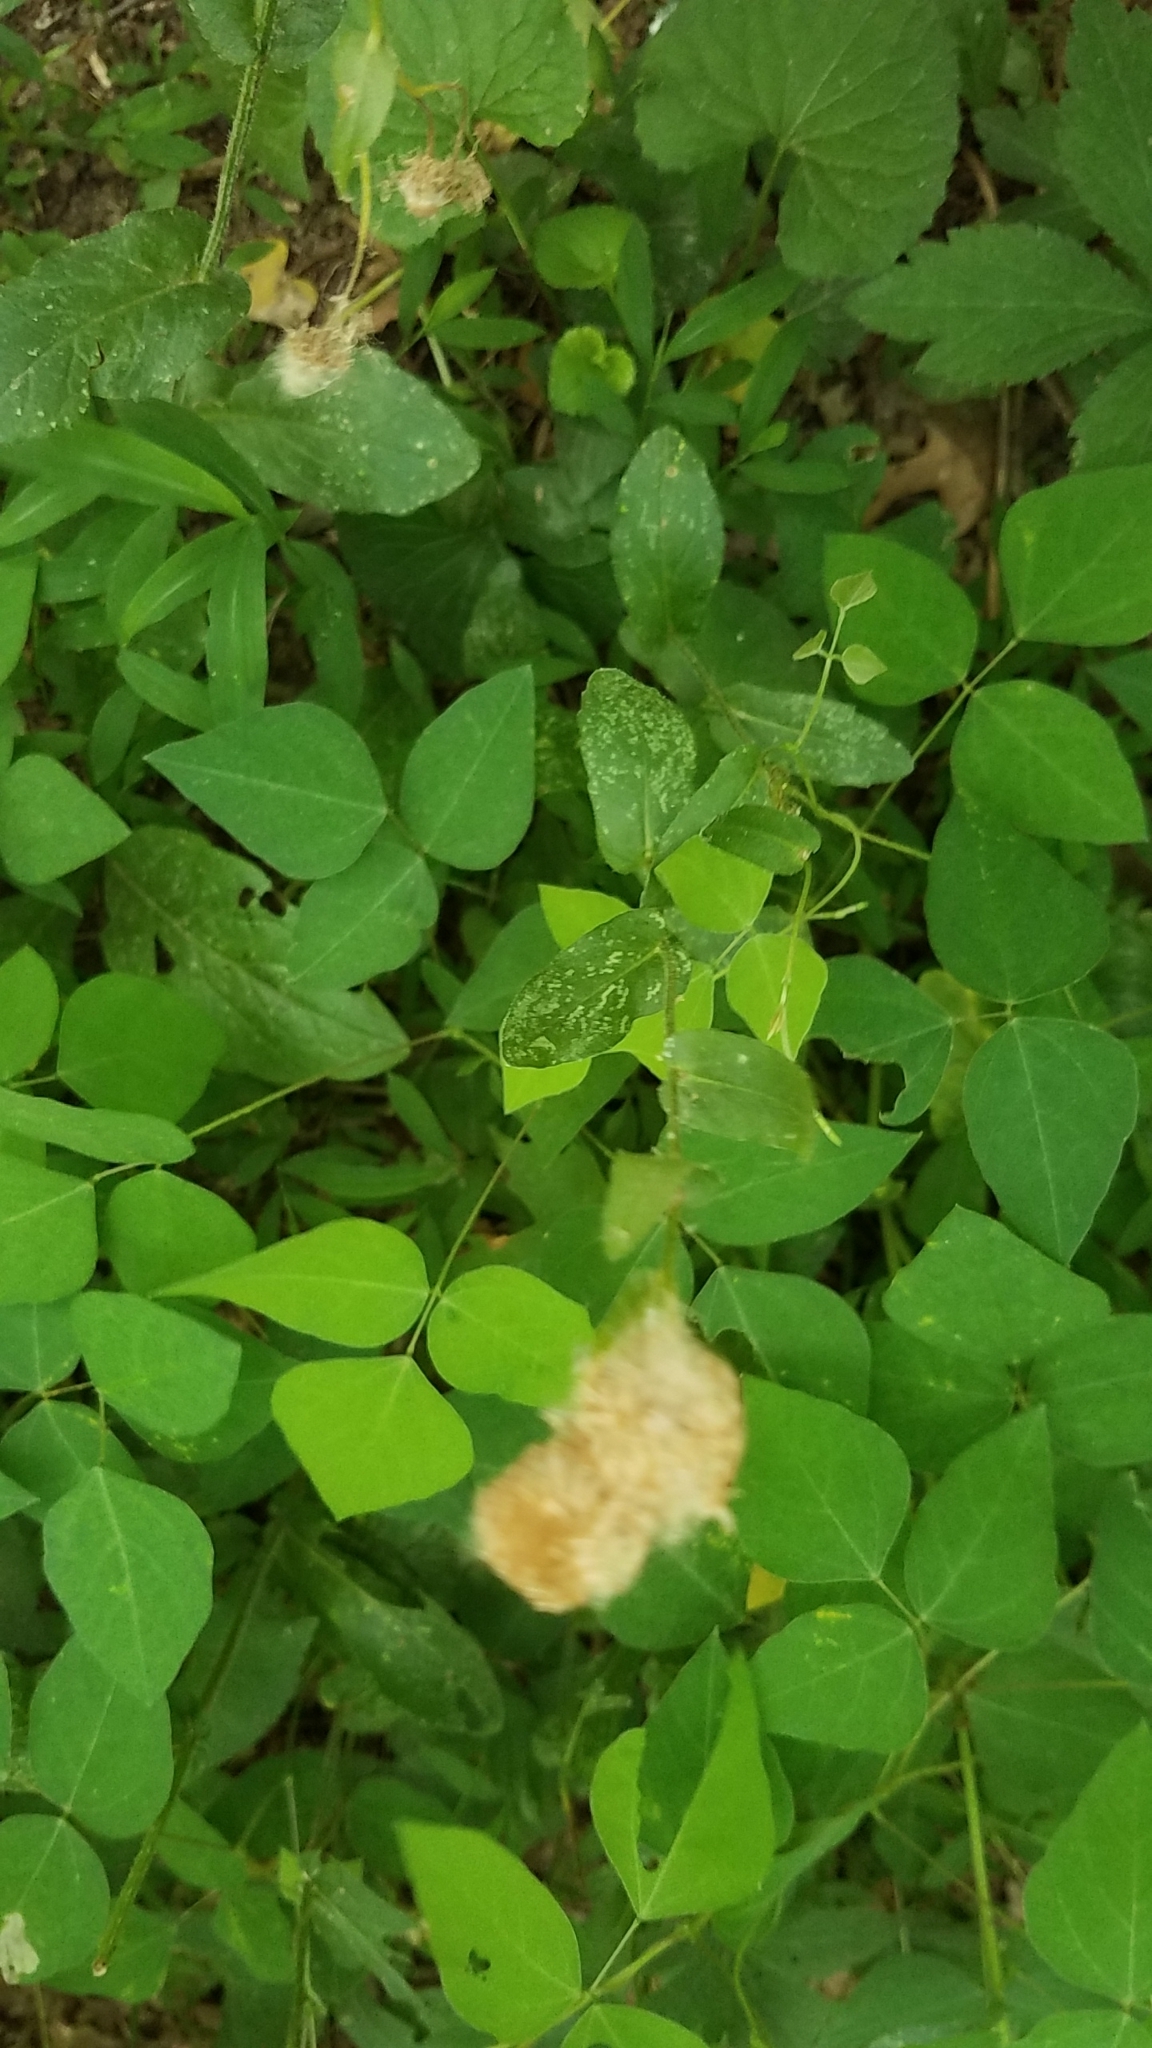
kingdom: Plantae
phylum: Tracheophyta
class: Magnoliopsida
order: Fabales
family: Fabaceae
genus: Amphicarpaea
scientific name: Amphicarpaea bracteata
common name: American hog peanut
